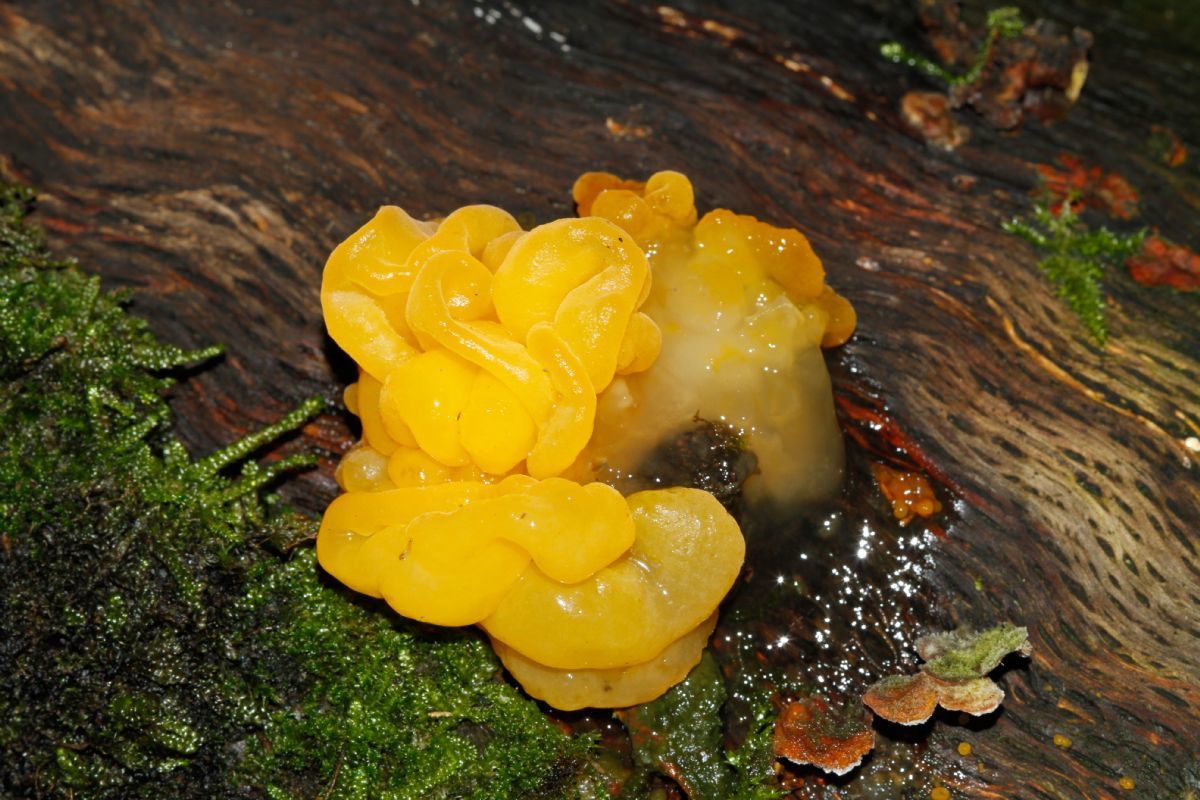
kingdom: Fungi
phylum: Basidiomycota
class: Tremellomycetes
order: Tremellales
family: Naemateliaceae
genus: Naematelia
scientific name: Naematelia aurantia
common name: Golden ear
